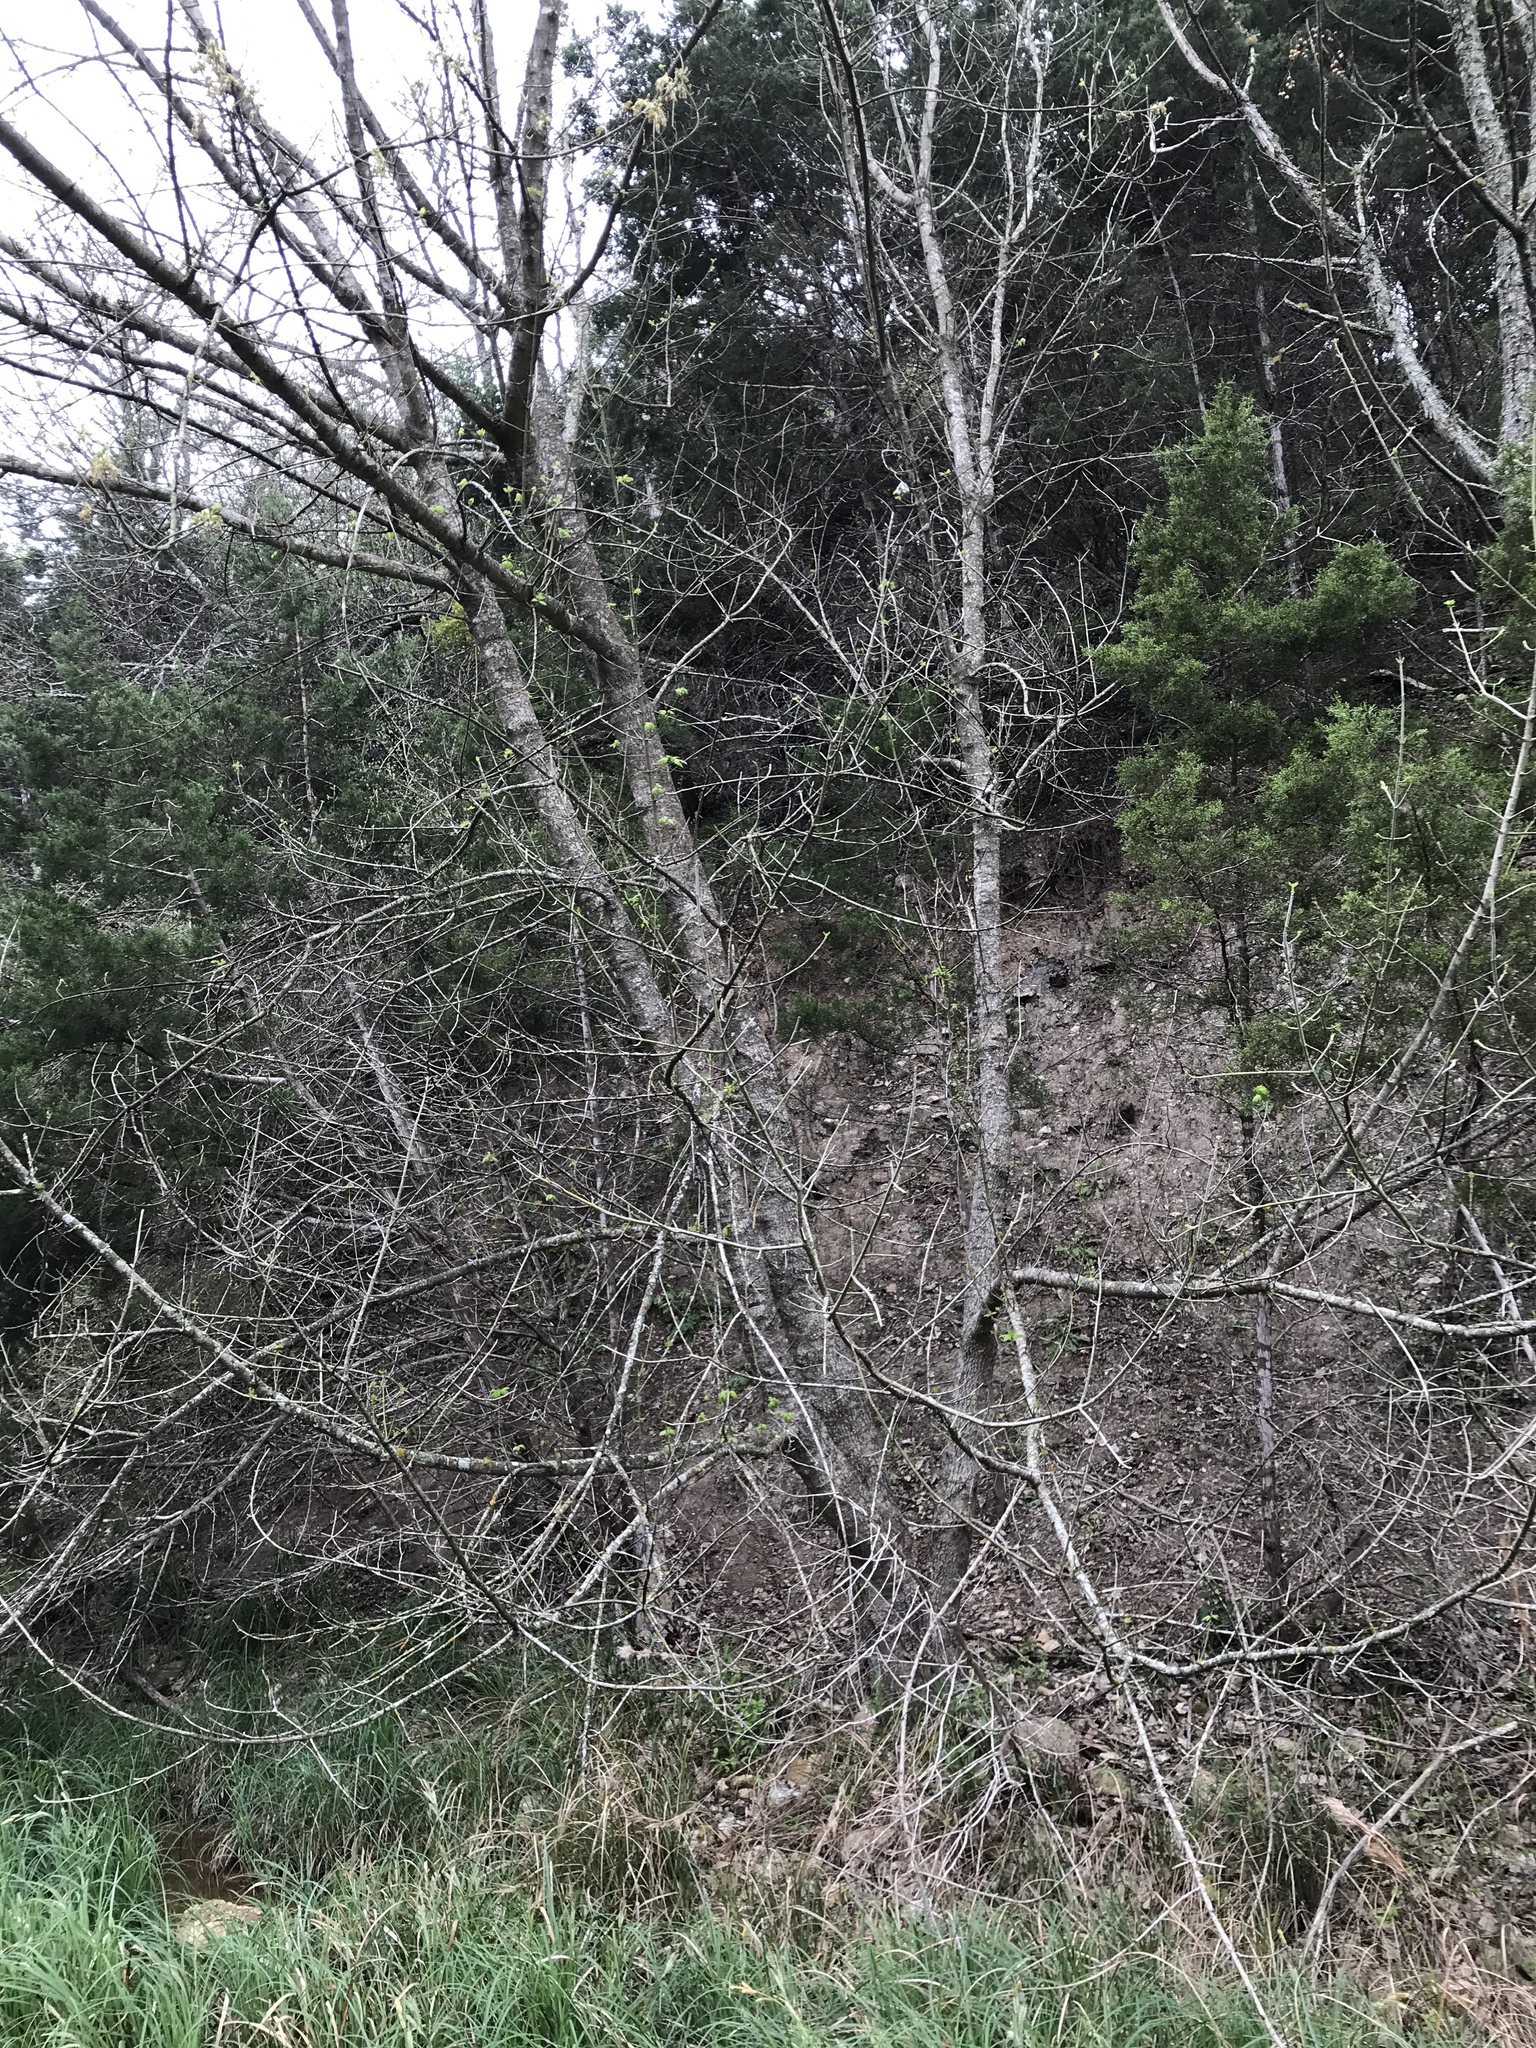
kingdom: Plantae
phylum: Tracheophyta
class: Magnoliopsida
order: Sapindales
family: Sapindaceae
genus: Acer
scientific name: Acer negundo
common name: Ashleaf maple
